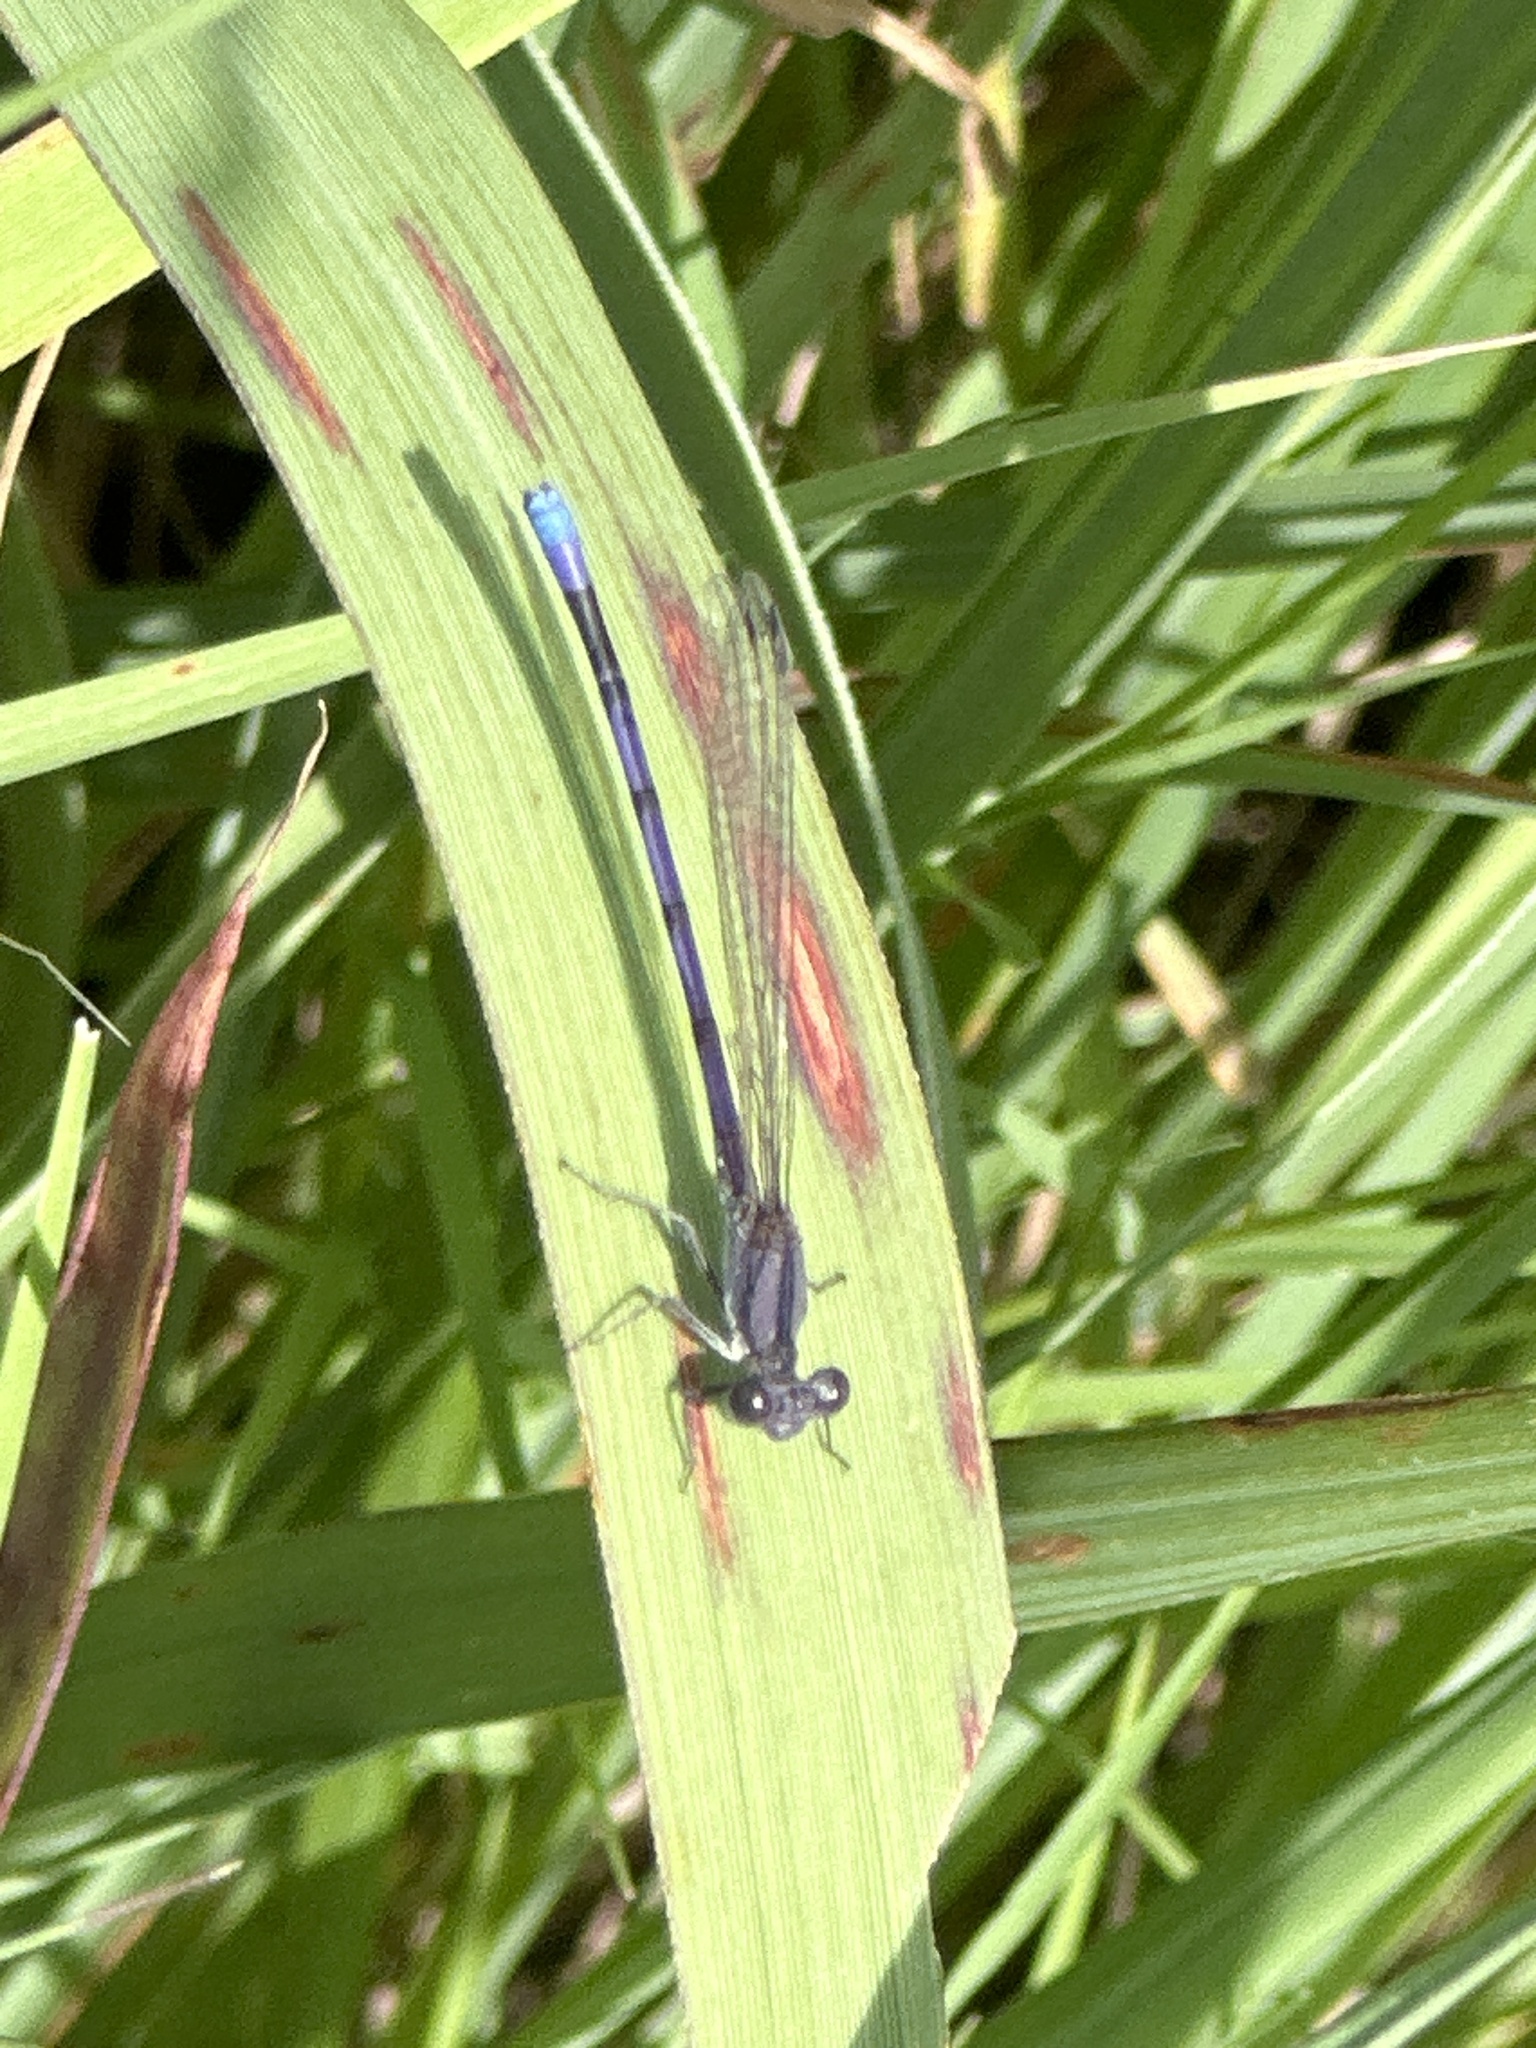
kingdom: Animalia
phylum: Arthropoda
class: Insecta
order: Odonata
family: Coenagrionidae
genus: Argia
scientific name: Argia fumipennis
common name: Variable dancer
